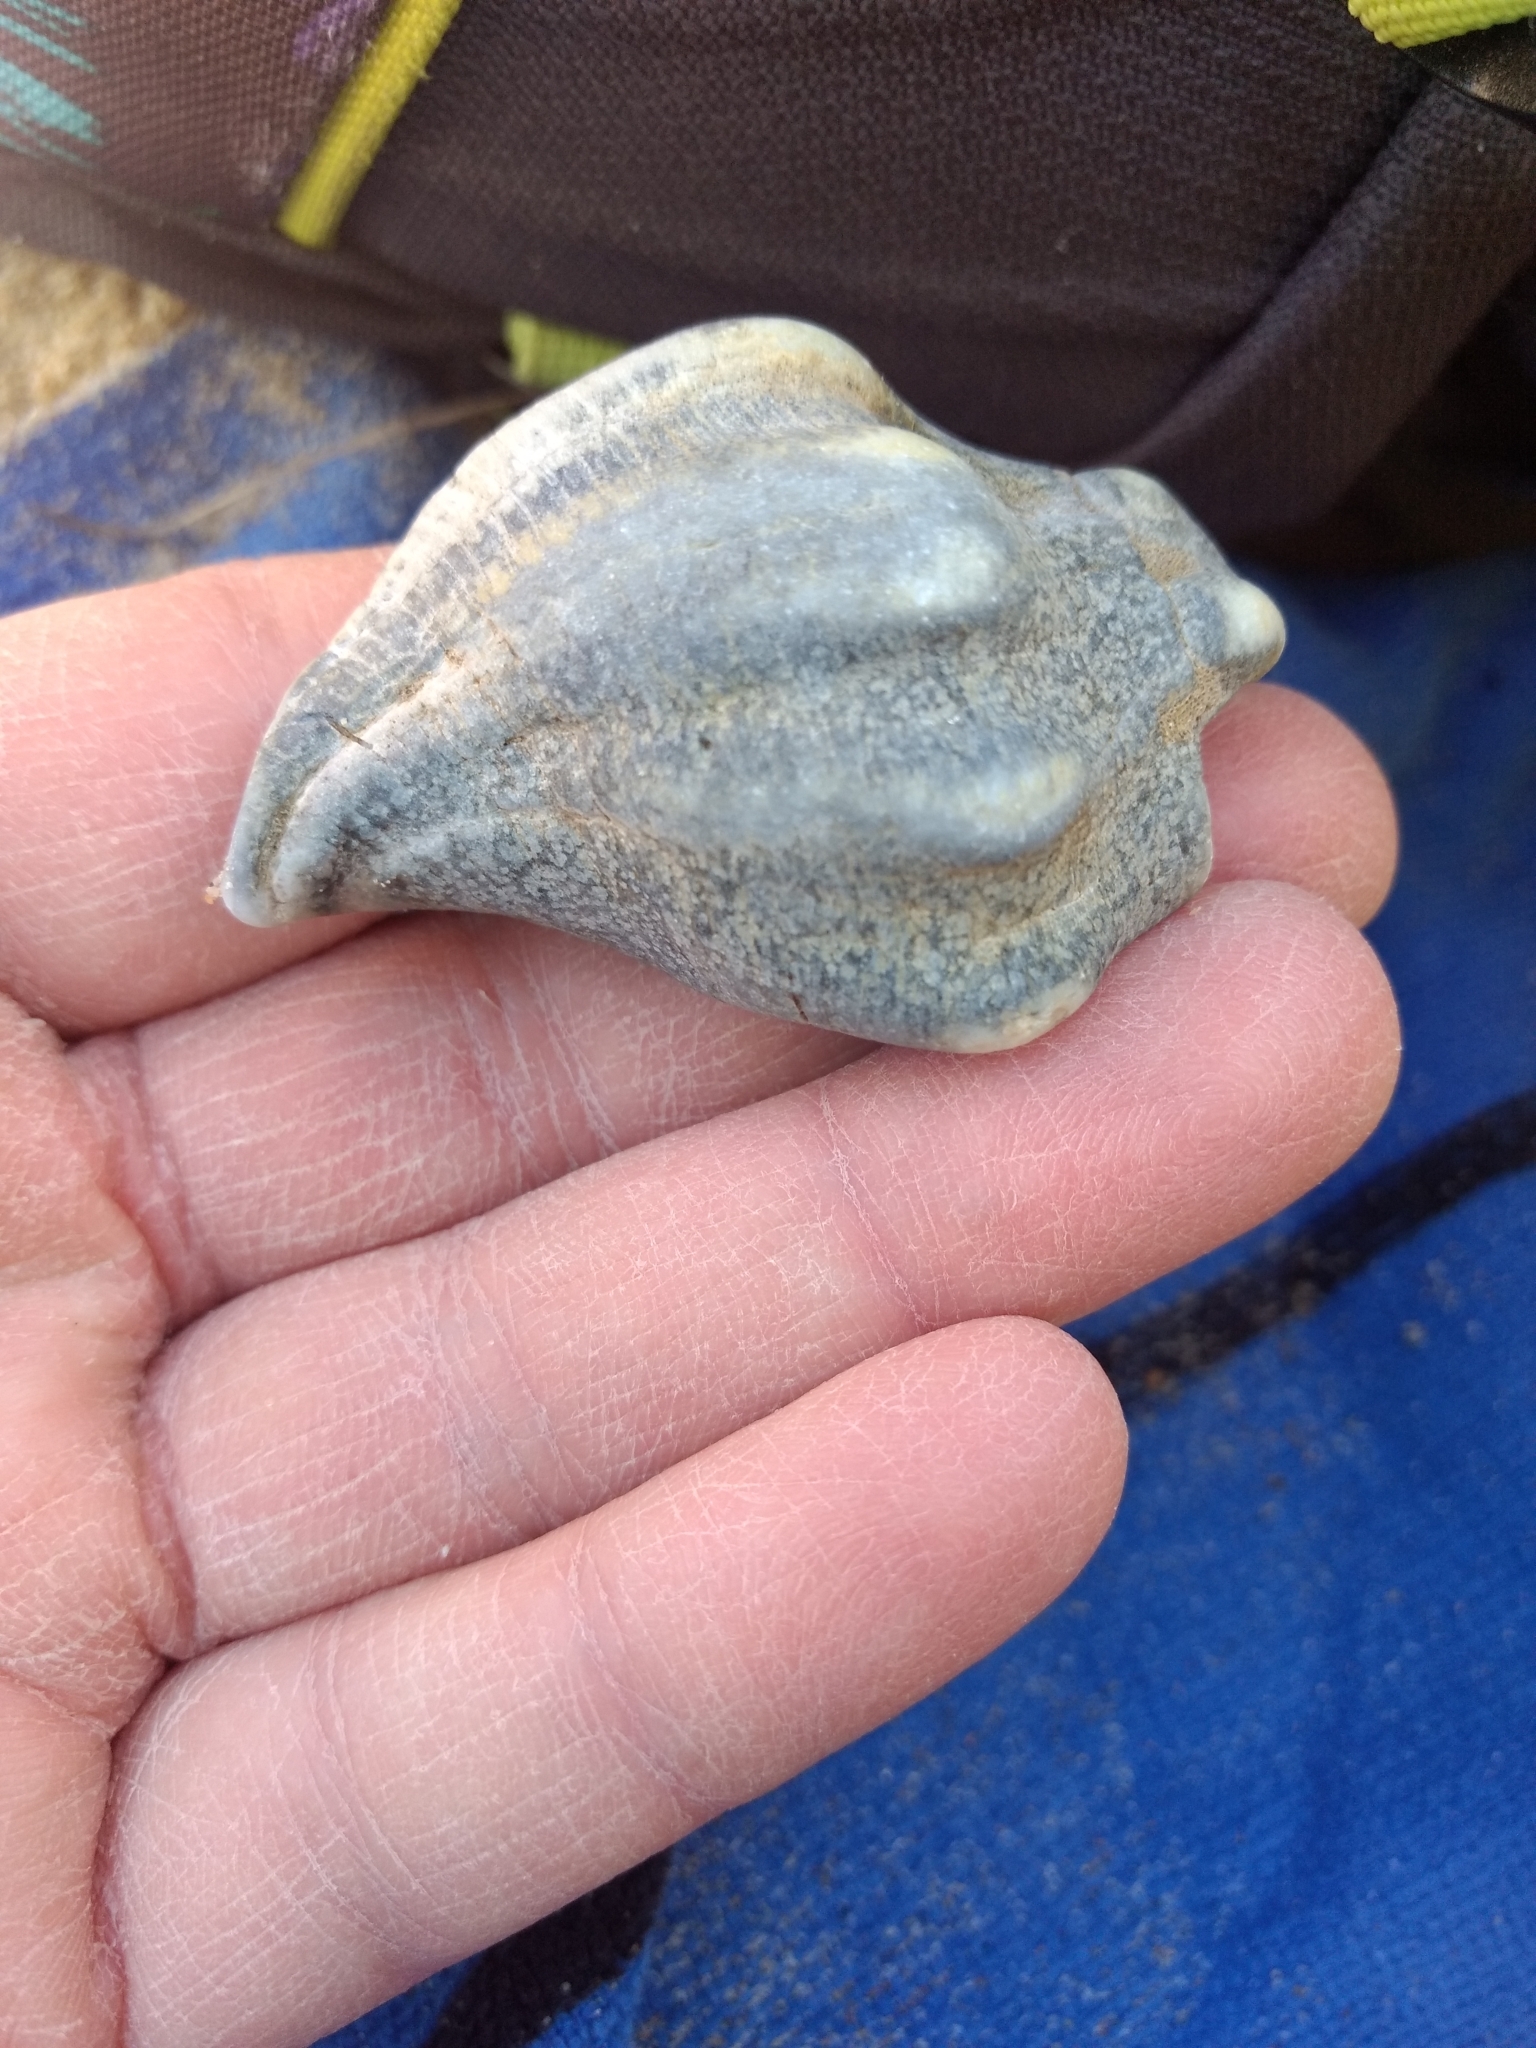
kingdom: Animalia
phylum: Mollusca
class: Gastropoda
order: Neogastropoda
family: Austrosiphonidae
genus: Kelletia
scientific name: Kelletia kelletii
